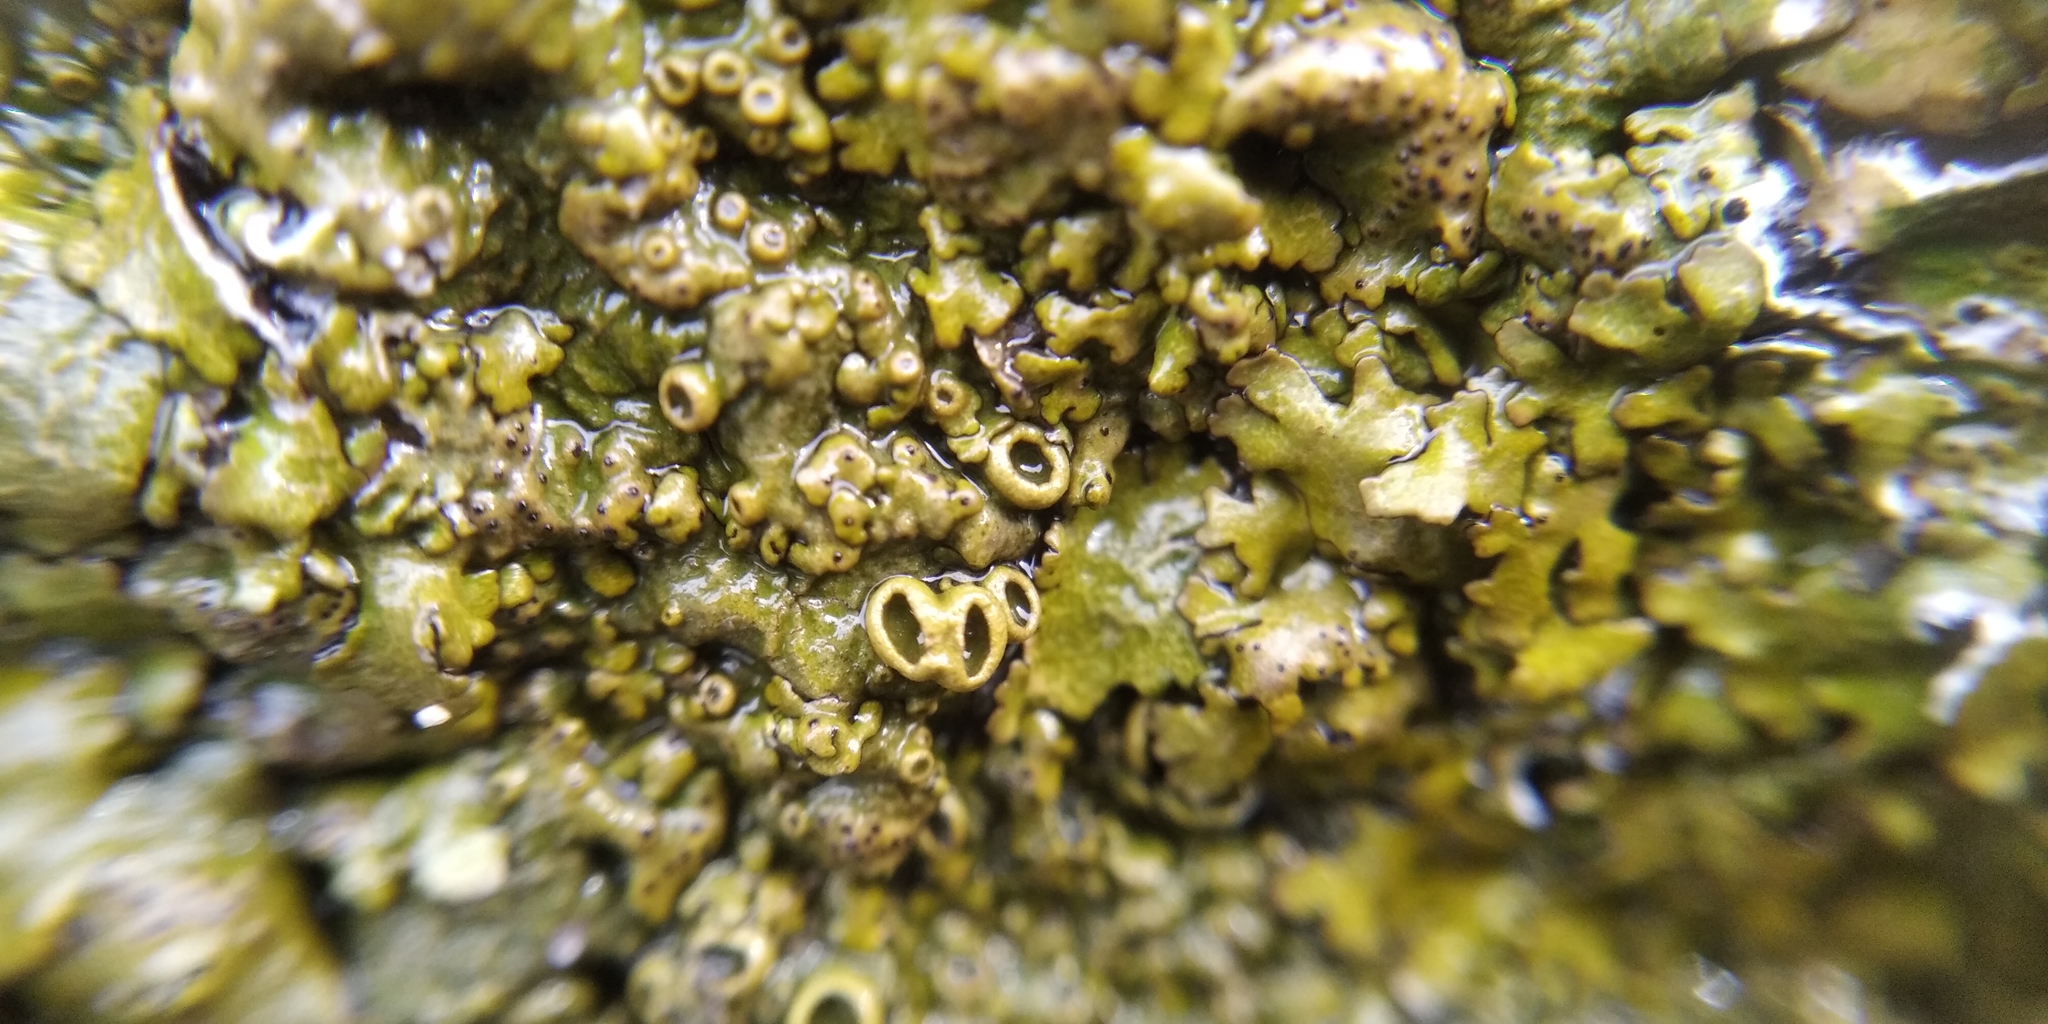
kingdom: Fungi
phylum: Ascomycota
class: Lecanoromycetes
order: Lecanorales
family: Parmeliaceae
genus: Xanthoparmelia
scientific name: Xanthoparmelia pulla
